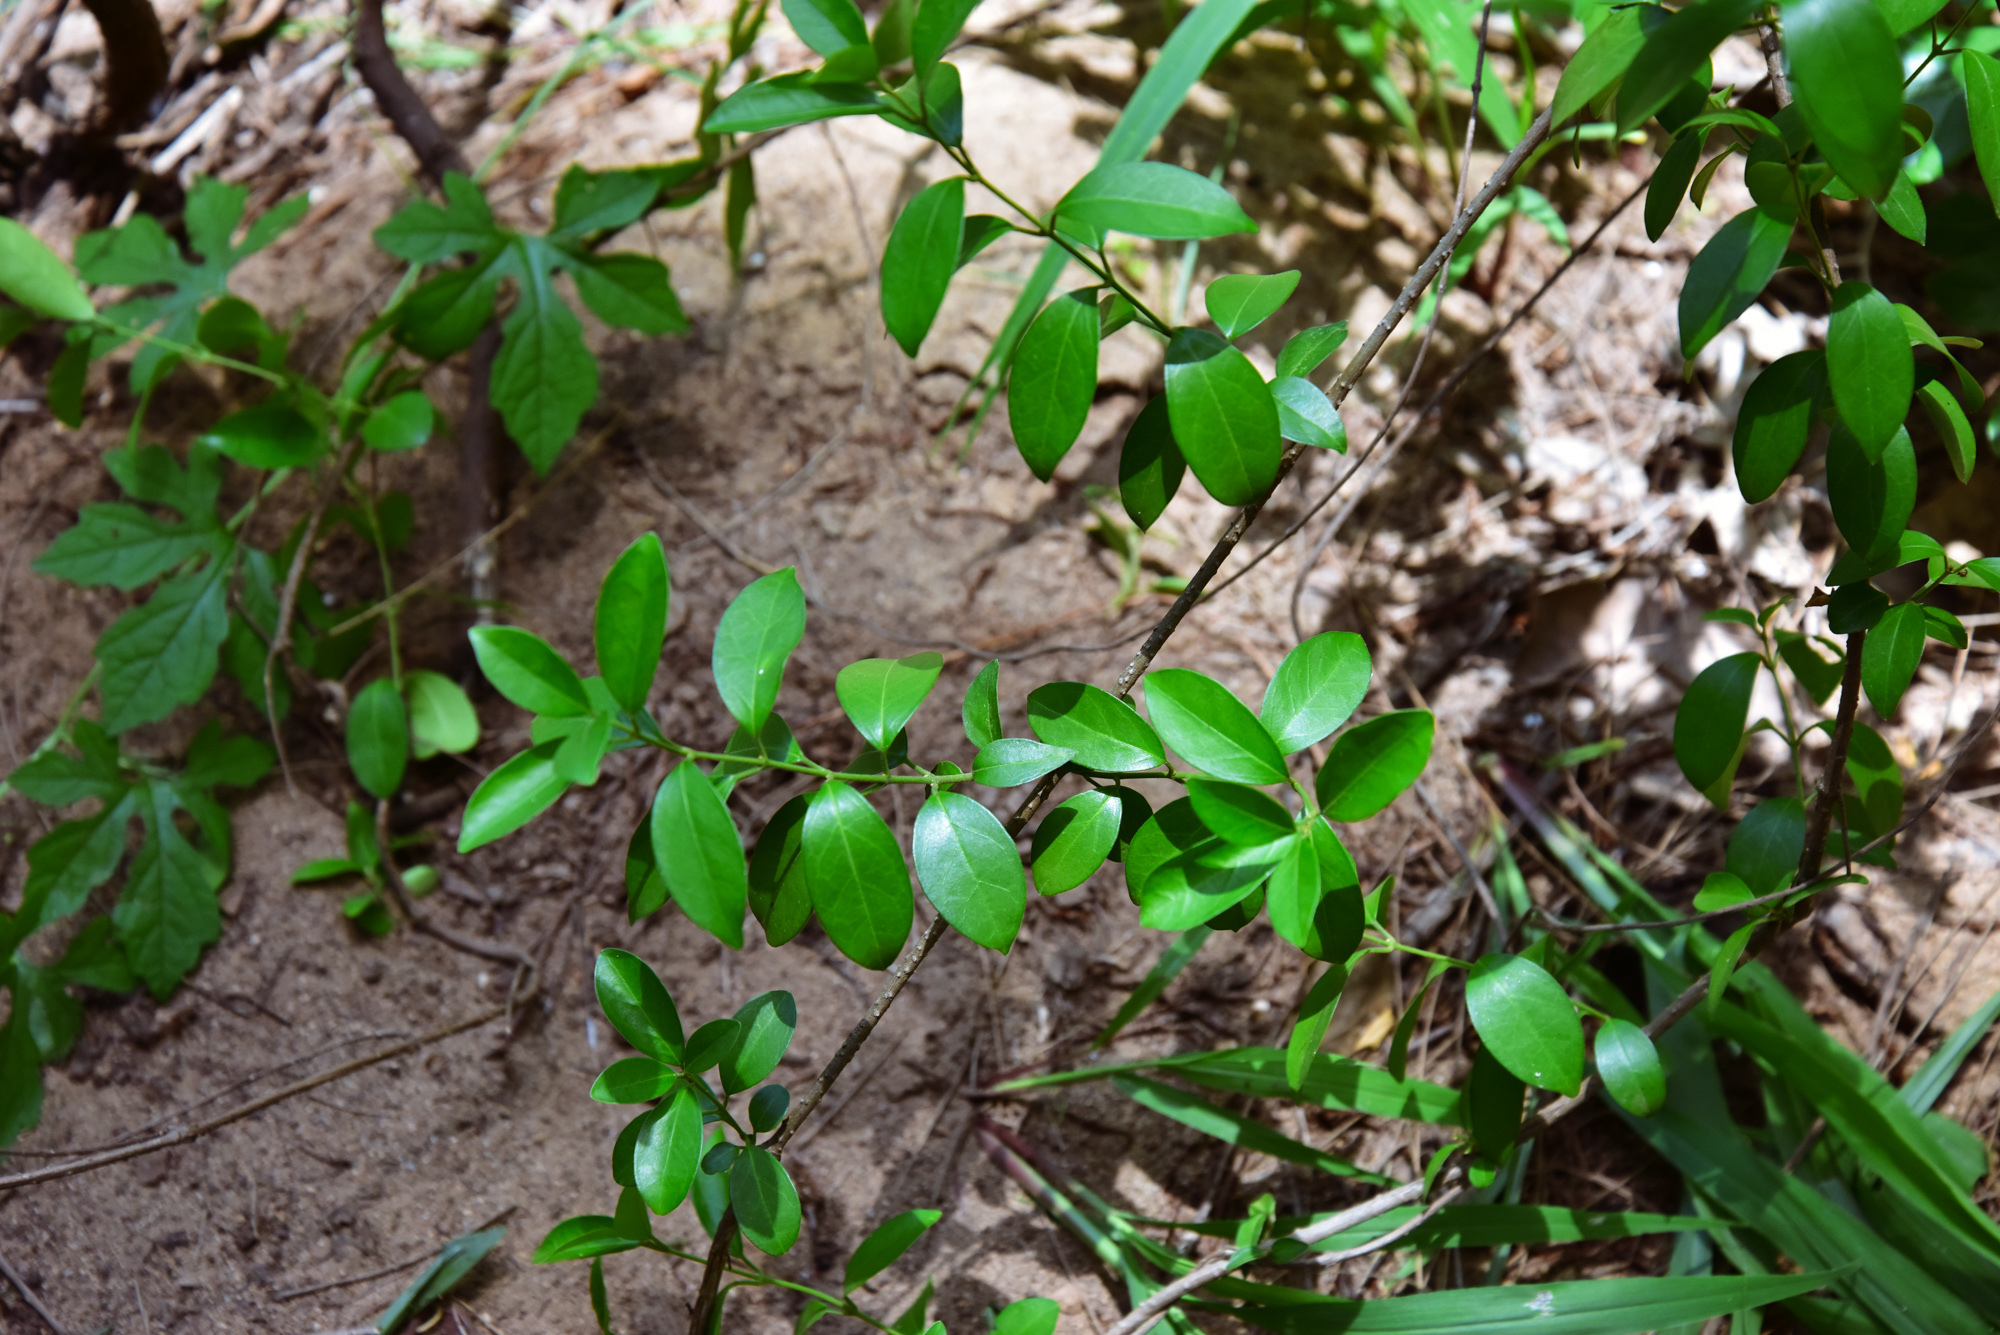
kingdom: Plantae
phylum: Tracheophyta
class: Magnoliopsida
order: Gentianales
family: Apocynaceae
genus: Gymnema
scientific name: Gymnema sylvestre
